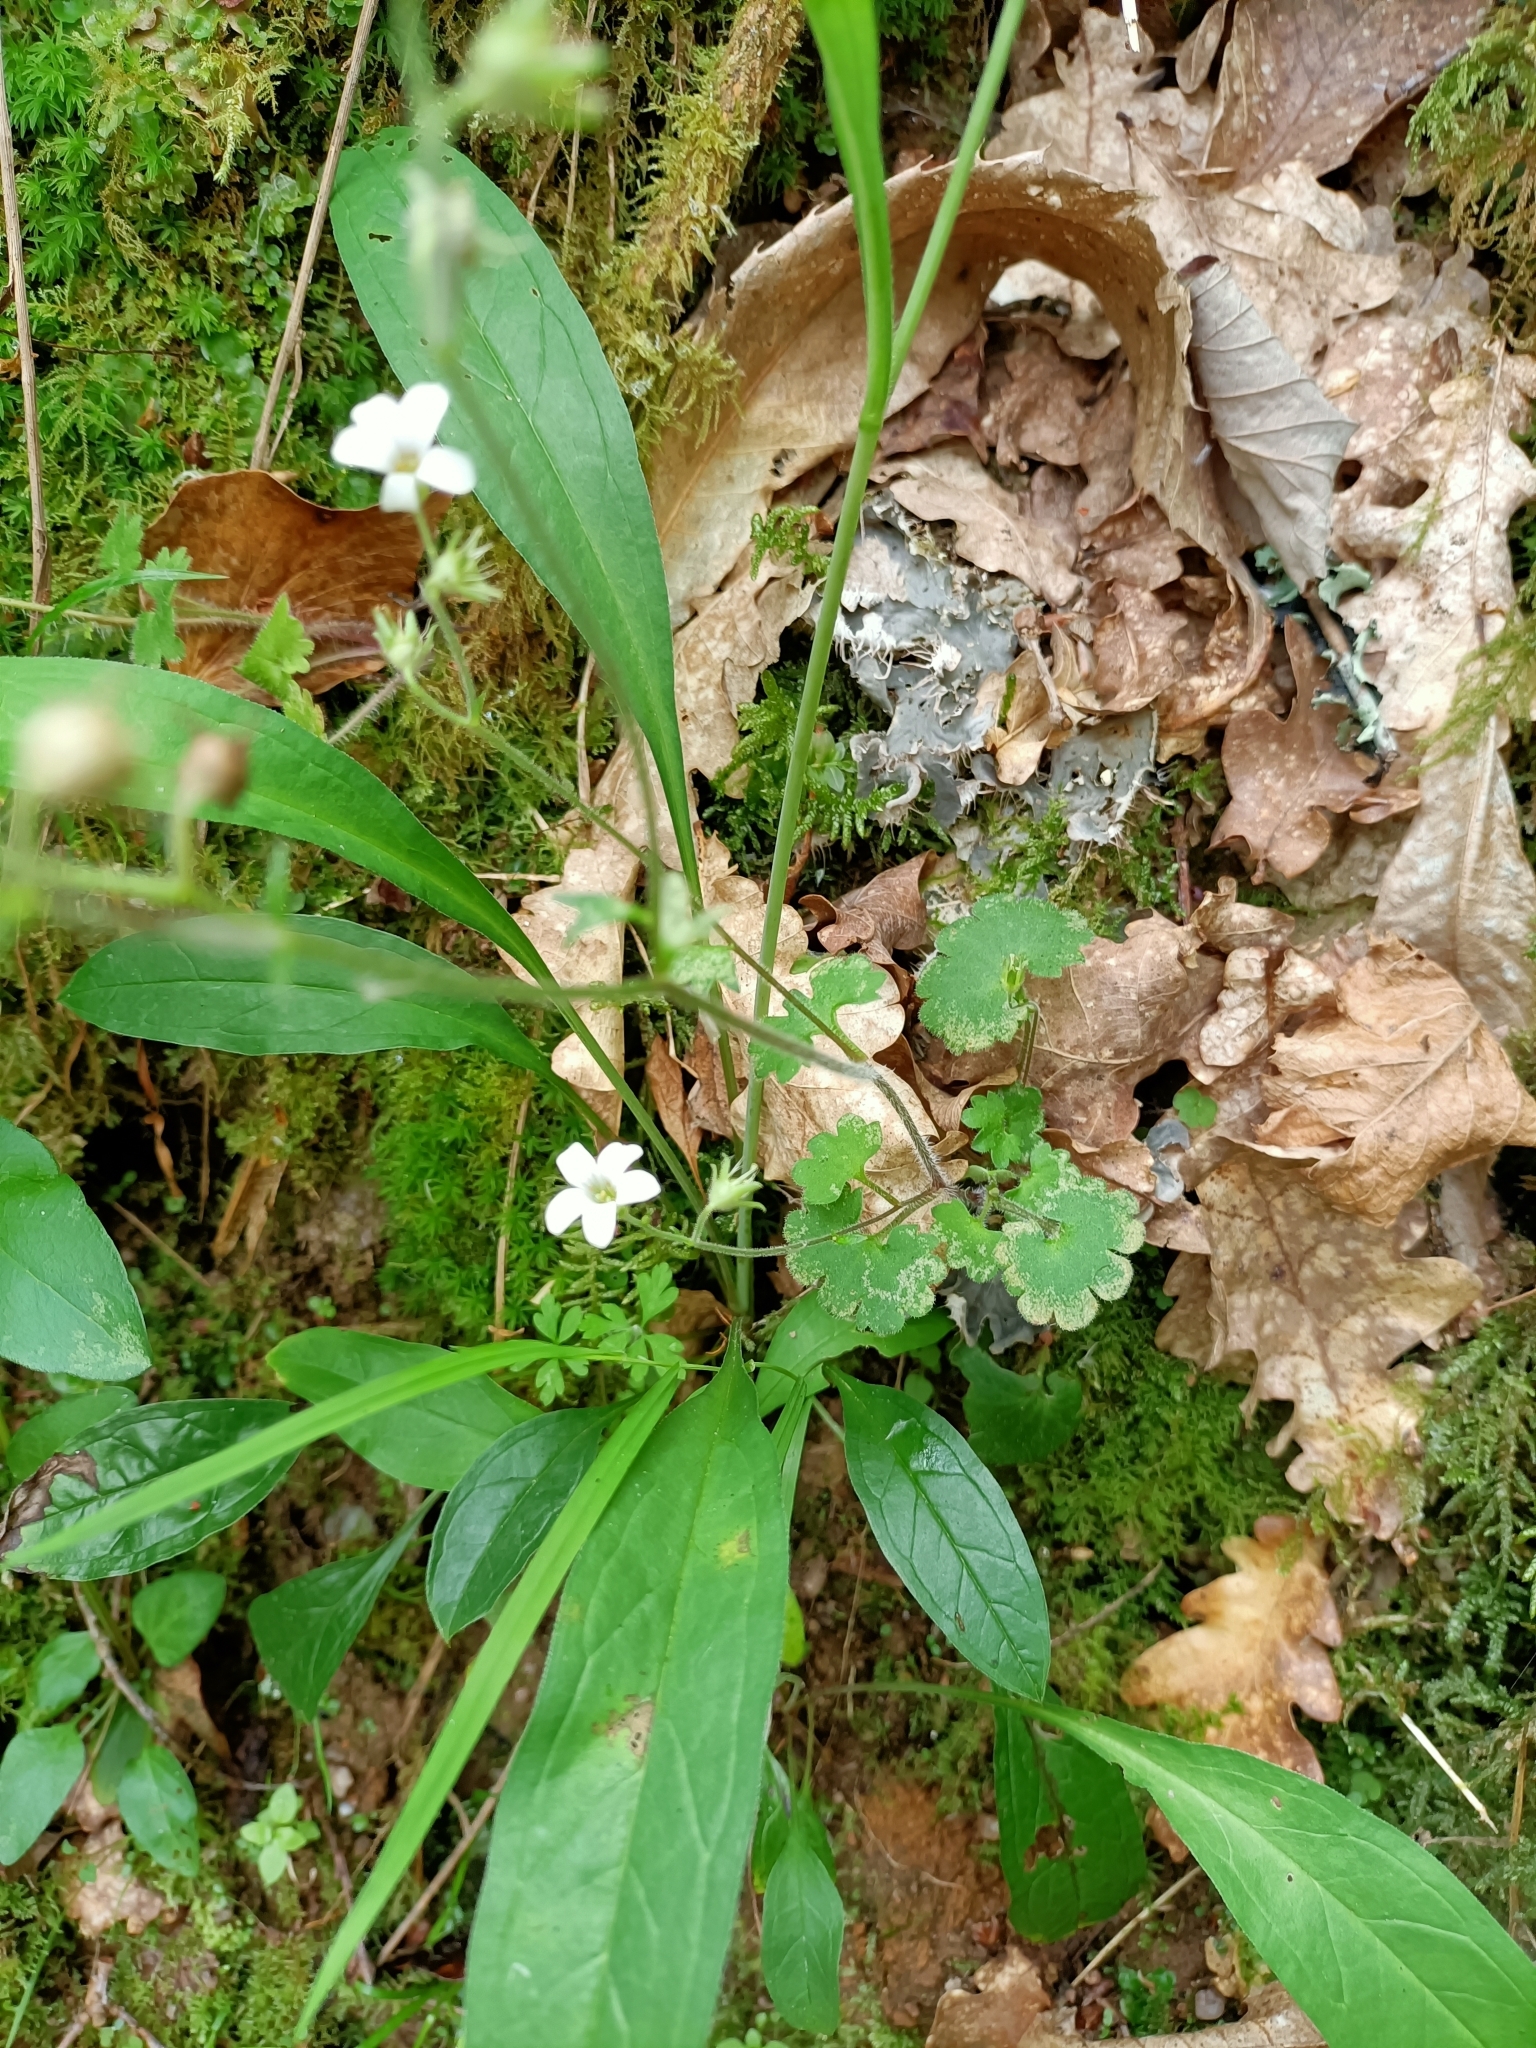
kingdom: Plantae
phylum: Tracheophyta
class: Magnoliopsida
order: Saxifragales
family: Saxifragaceae
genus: Saxifraga
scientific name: Saxifraga granulata
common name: Meadow saxifrage
